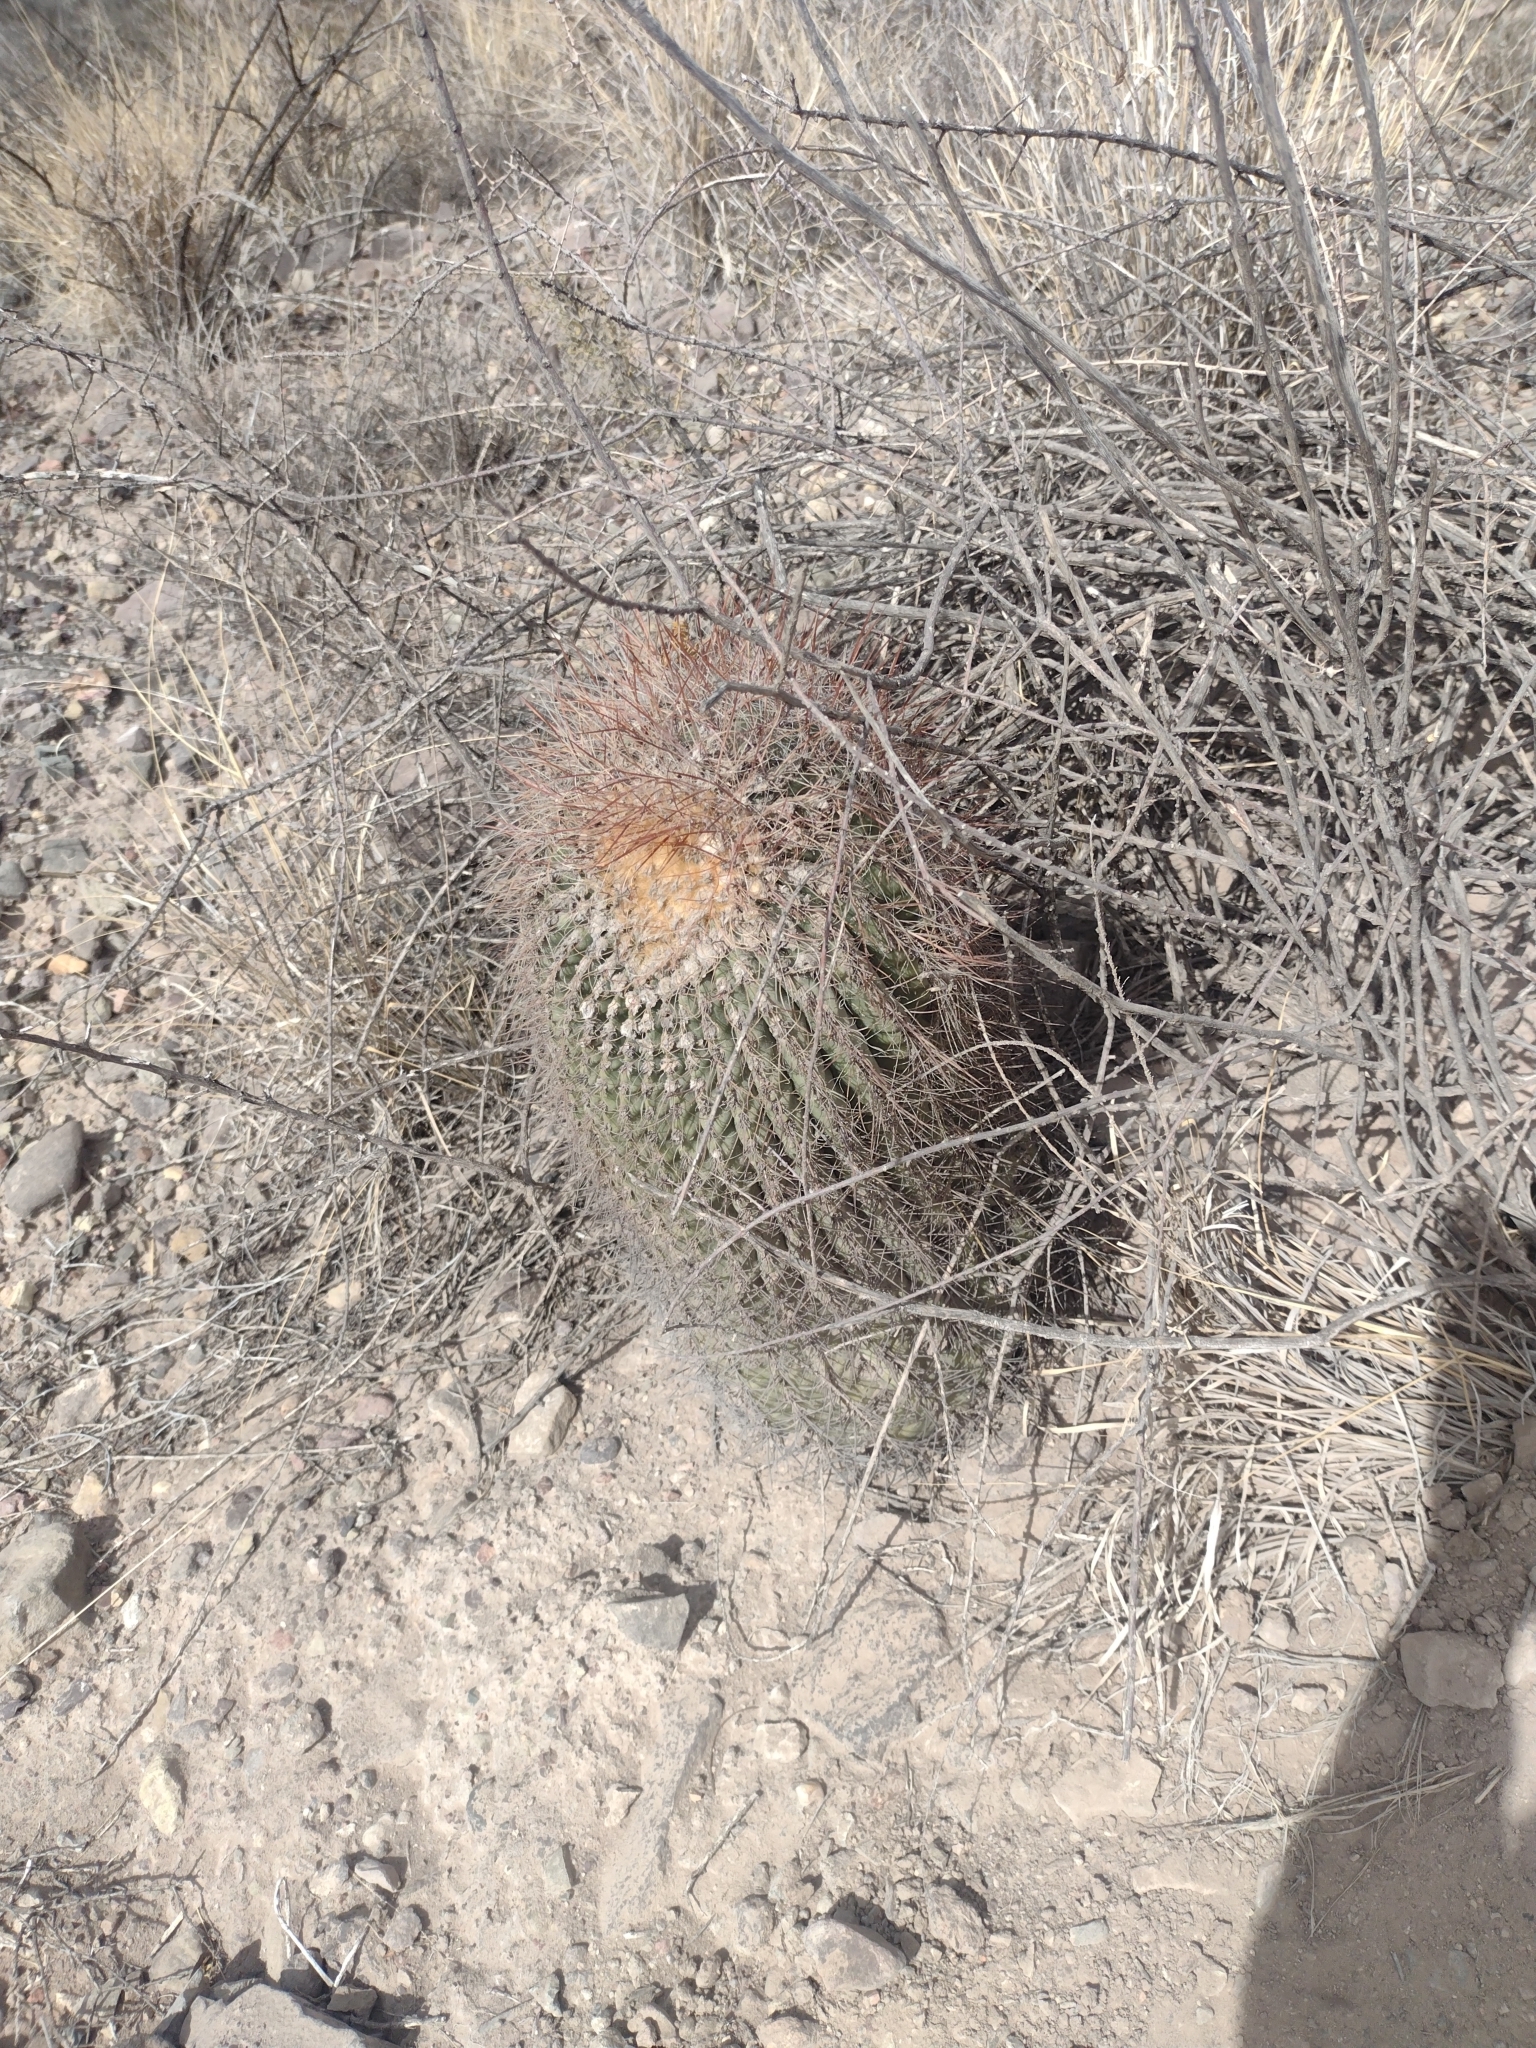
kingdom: Plantae
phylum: Tracheophyta
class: Magnoliopsida
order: Caryophyllales
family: Cactaceae
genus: Denmoza
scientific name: Denmoza rhodacantha
